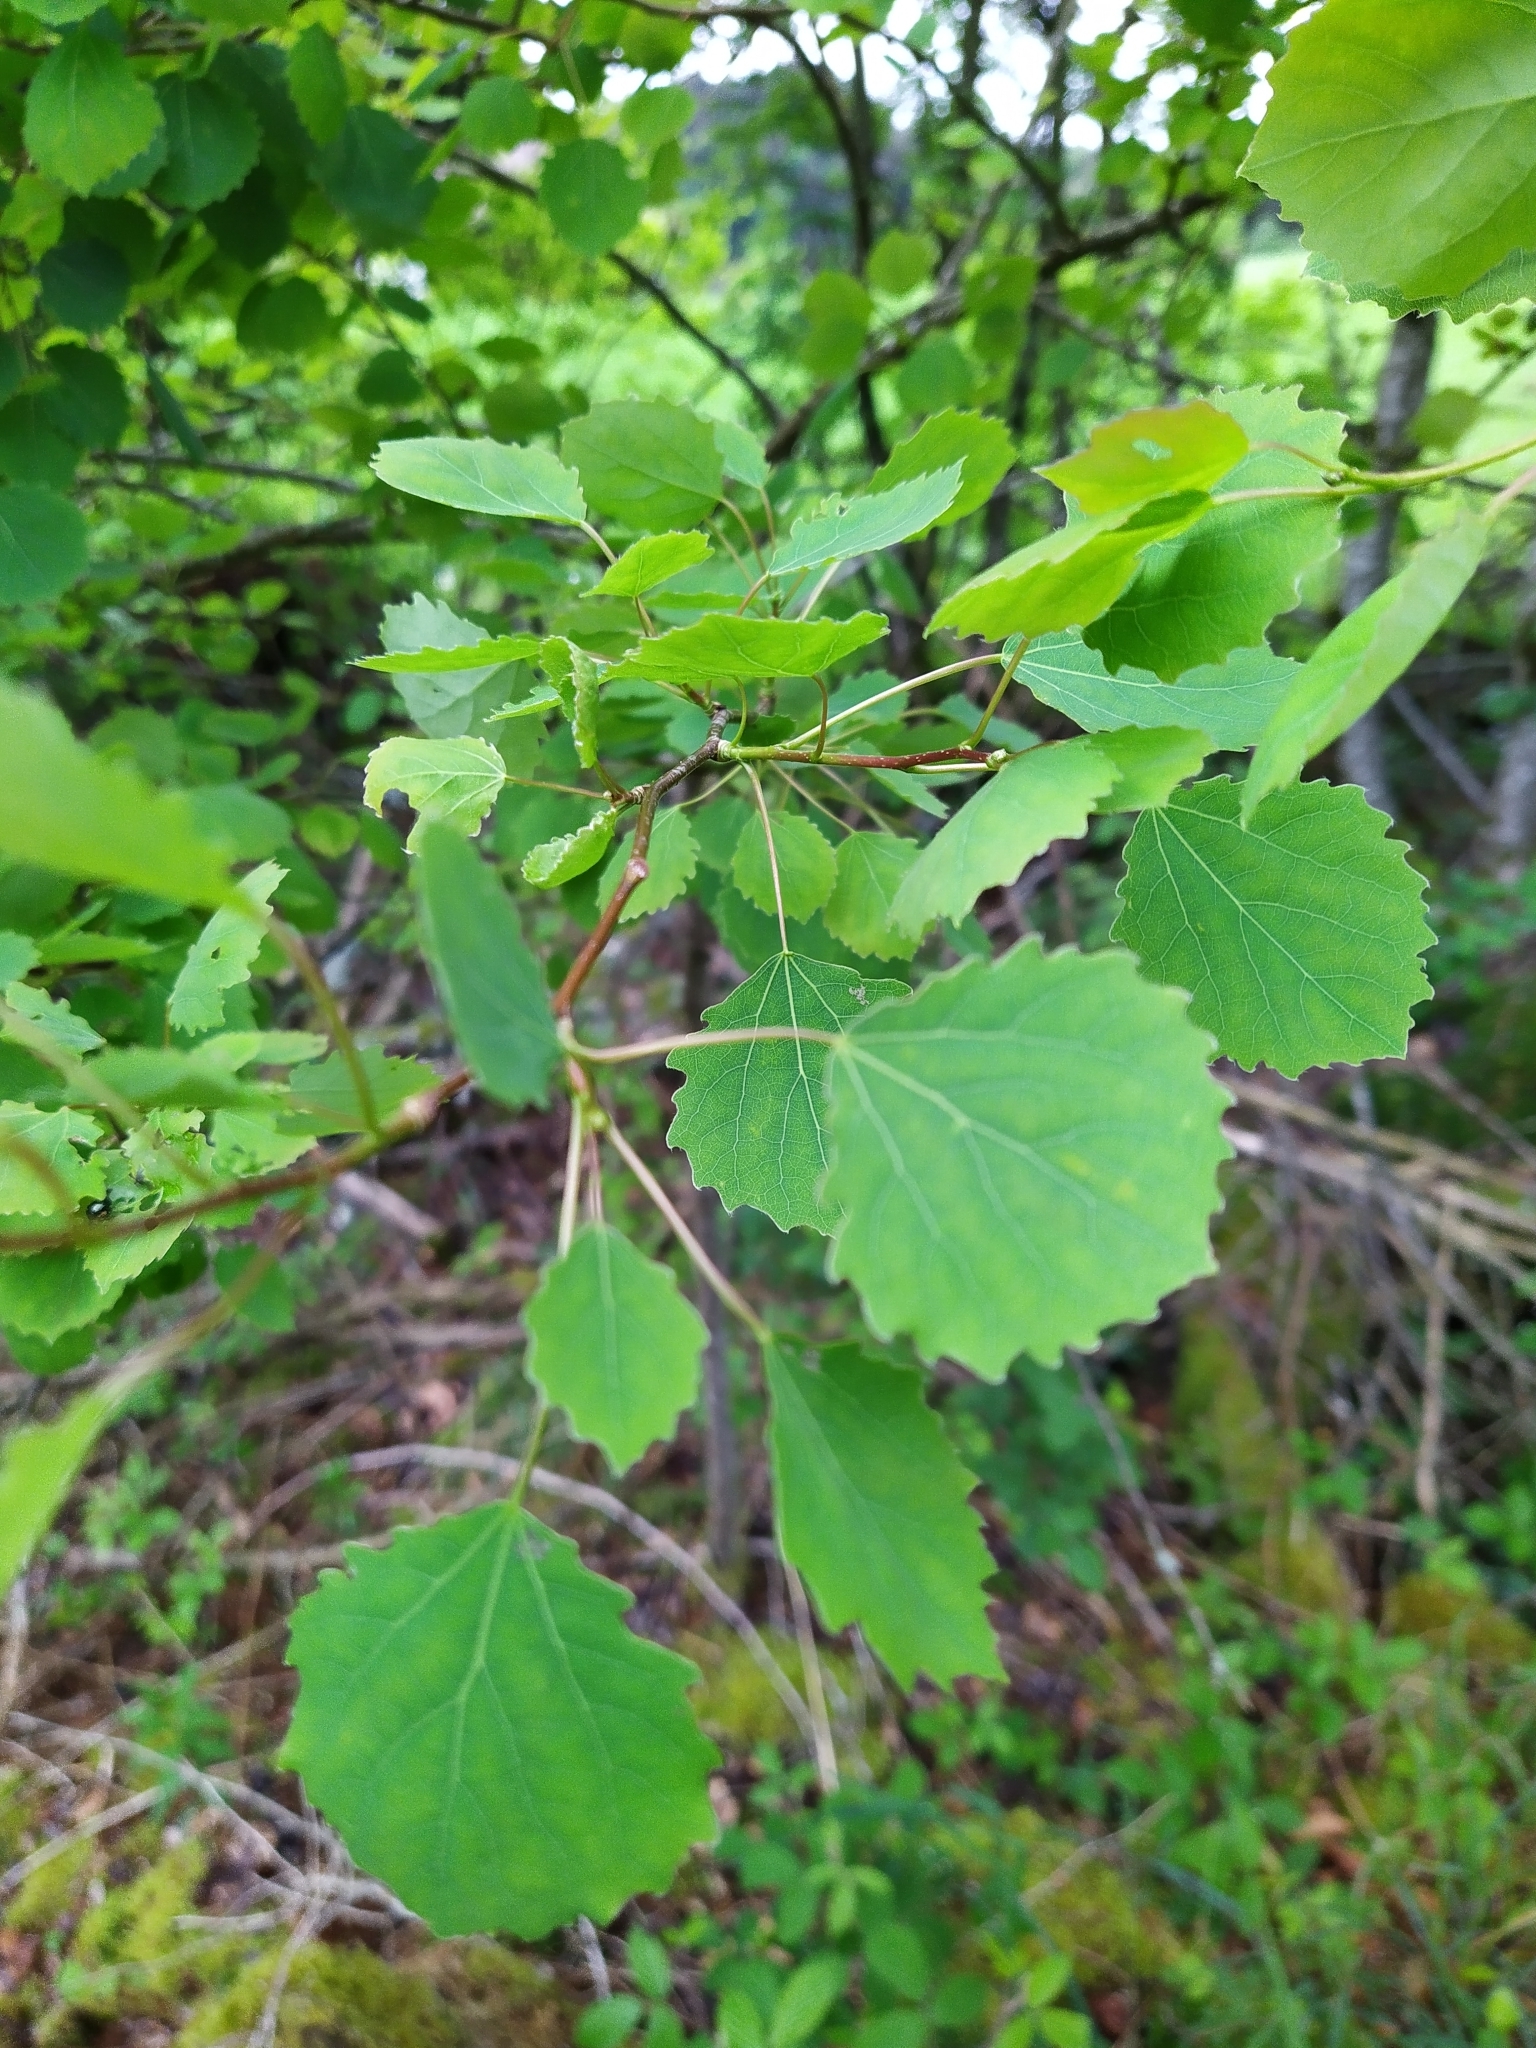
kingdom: Plantae
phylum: Tracheophyta
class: Magnoliopsida
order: Malpighiales
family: Salicaceae
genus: Populus
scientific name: Populus tremula
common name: European aspen
